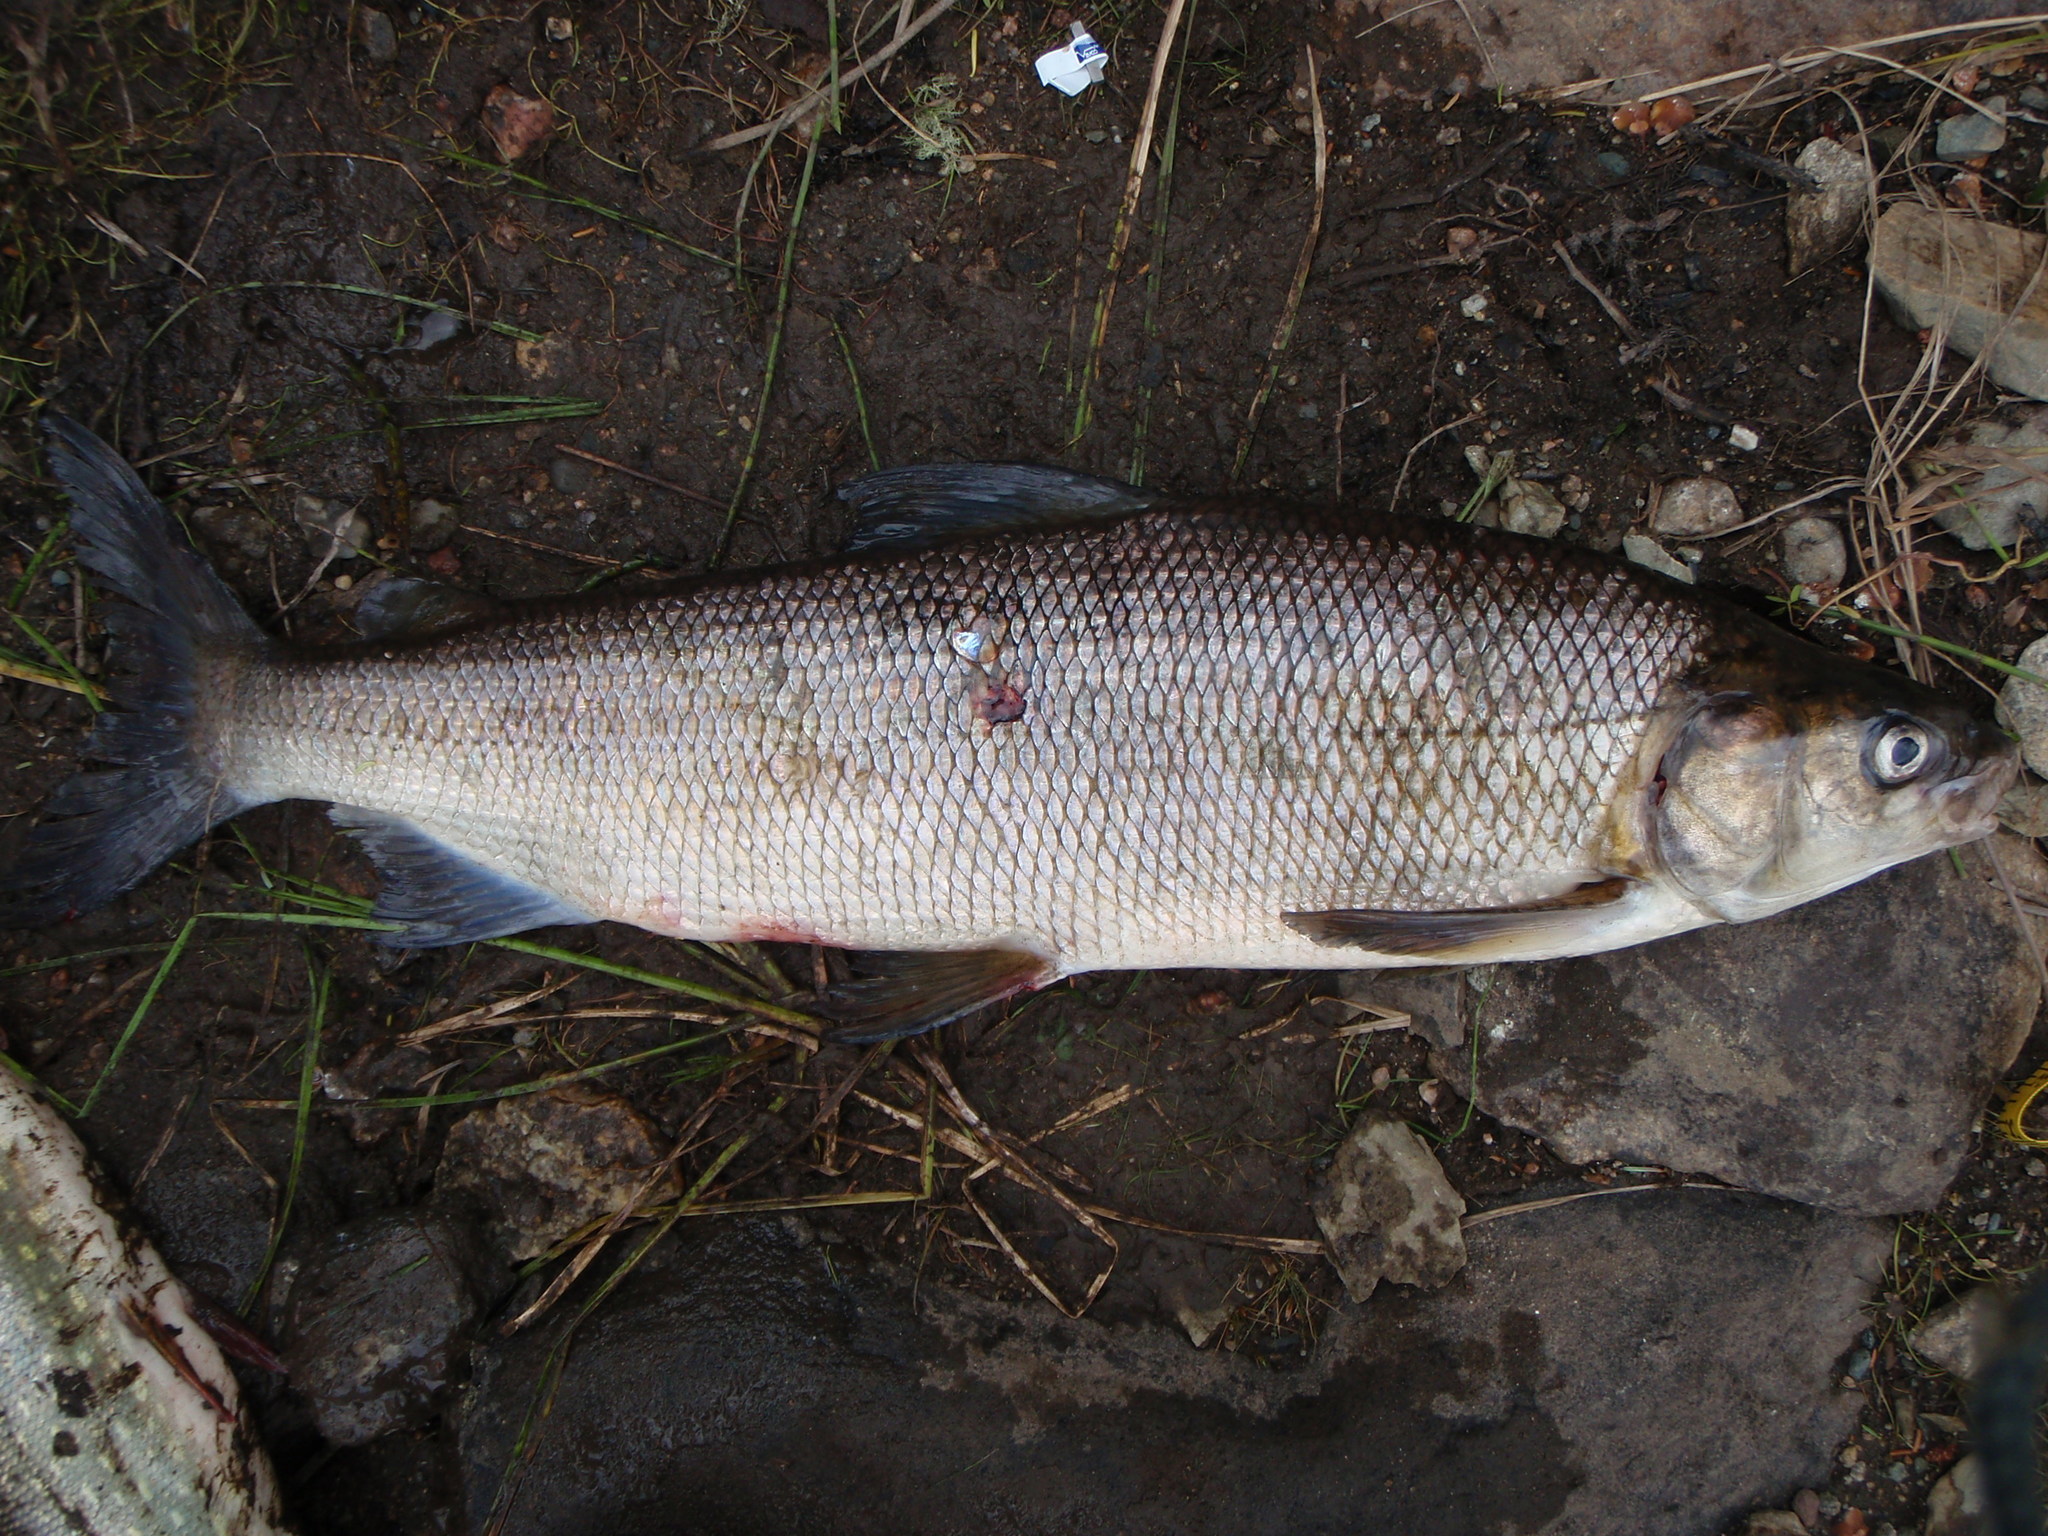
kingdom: Animalia
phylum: Chordata
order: Salmoniformes
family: Salmonidae
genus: Coregonus
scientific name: Coregonus clupeaformis
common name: Lake whitefish
